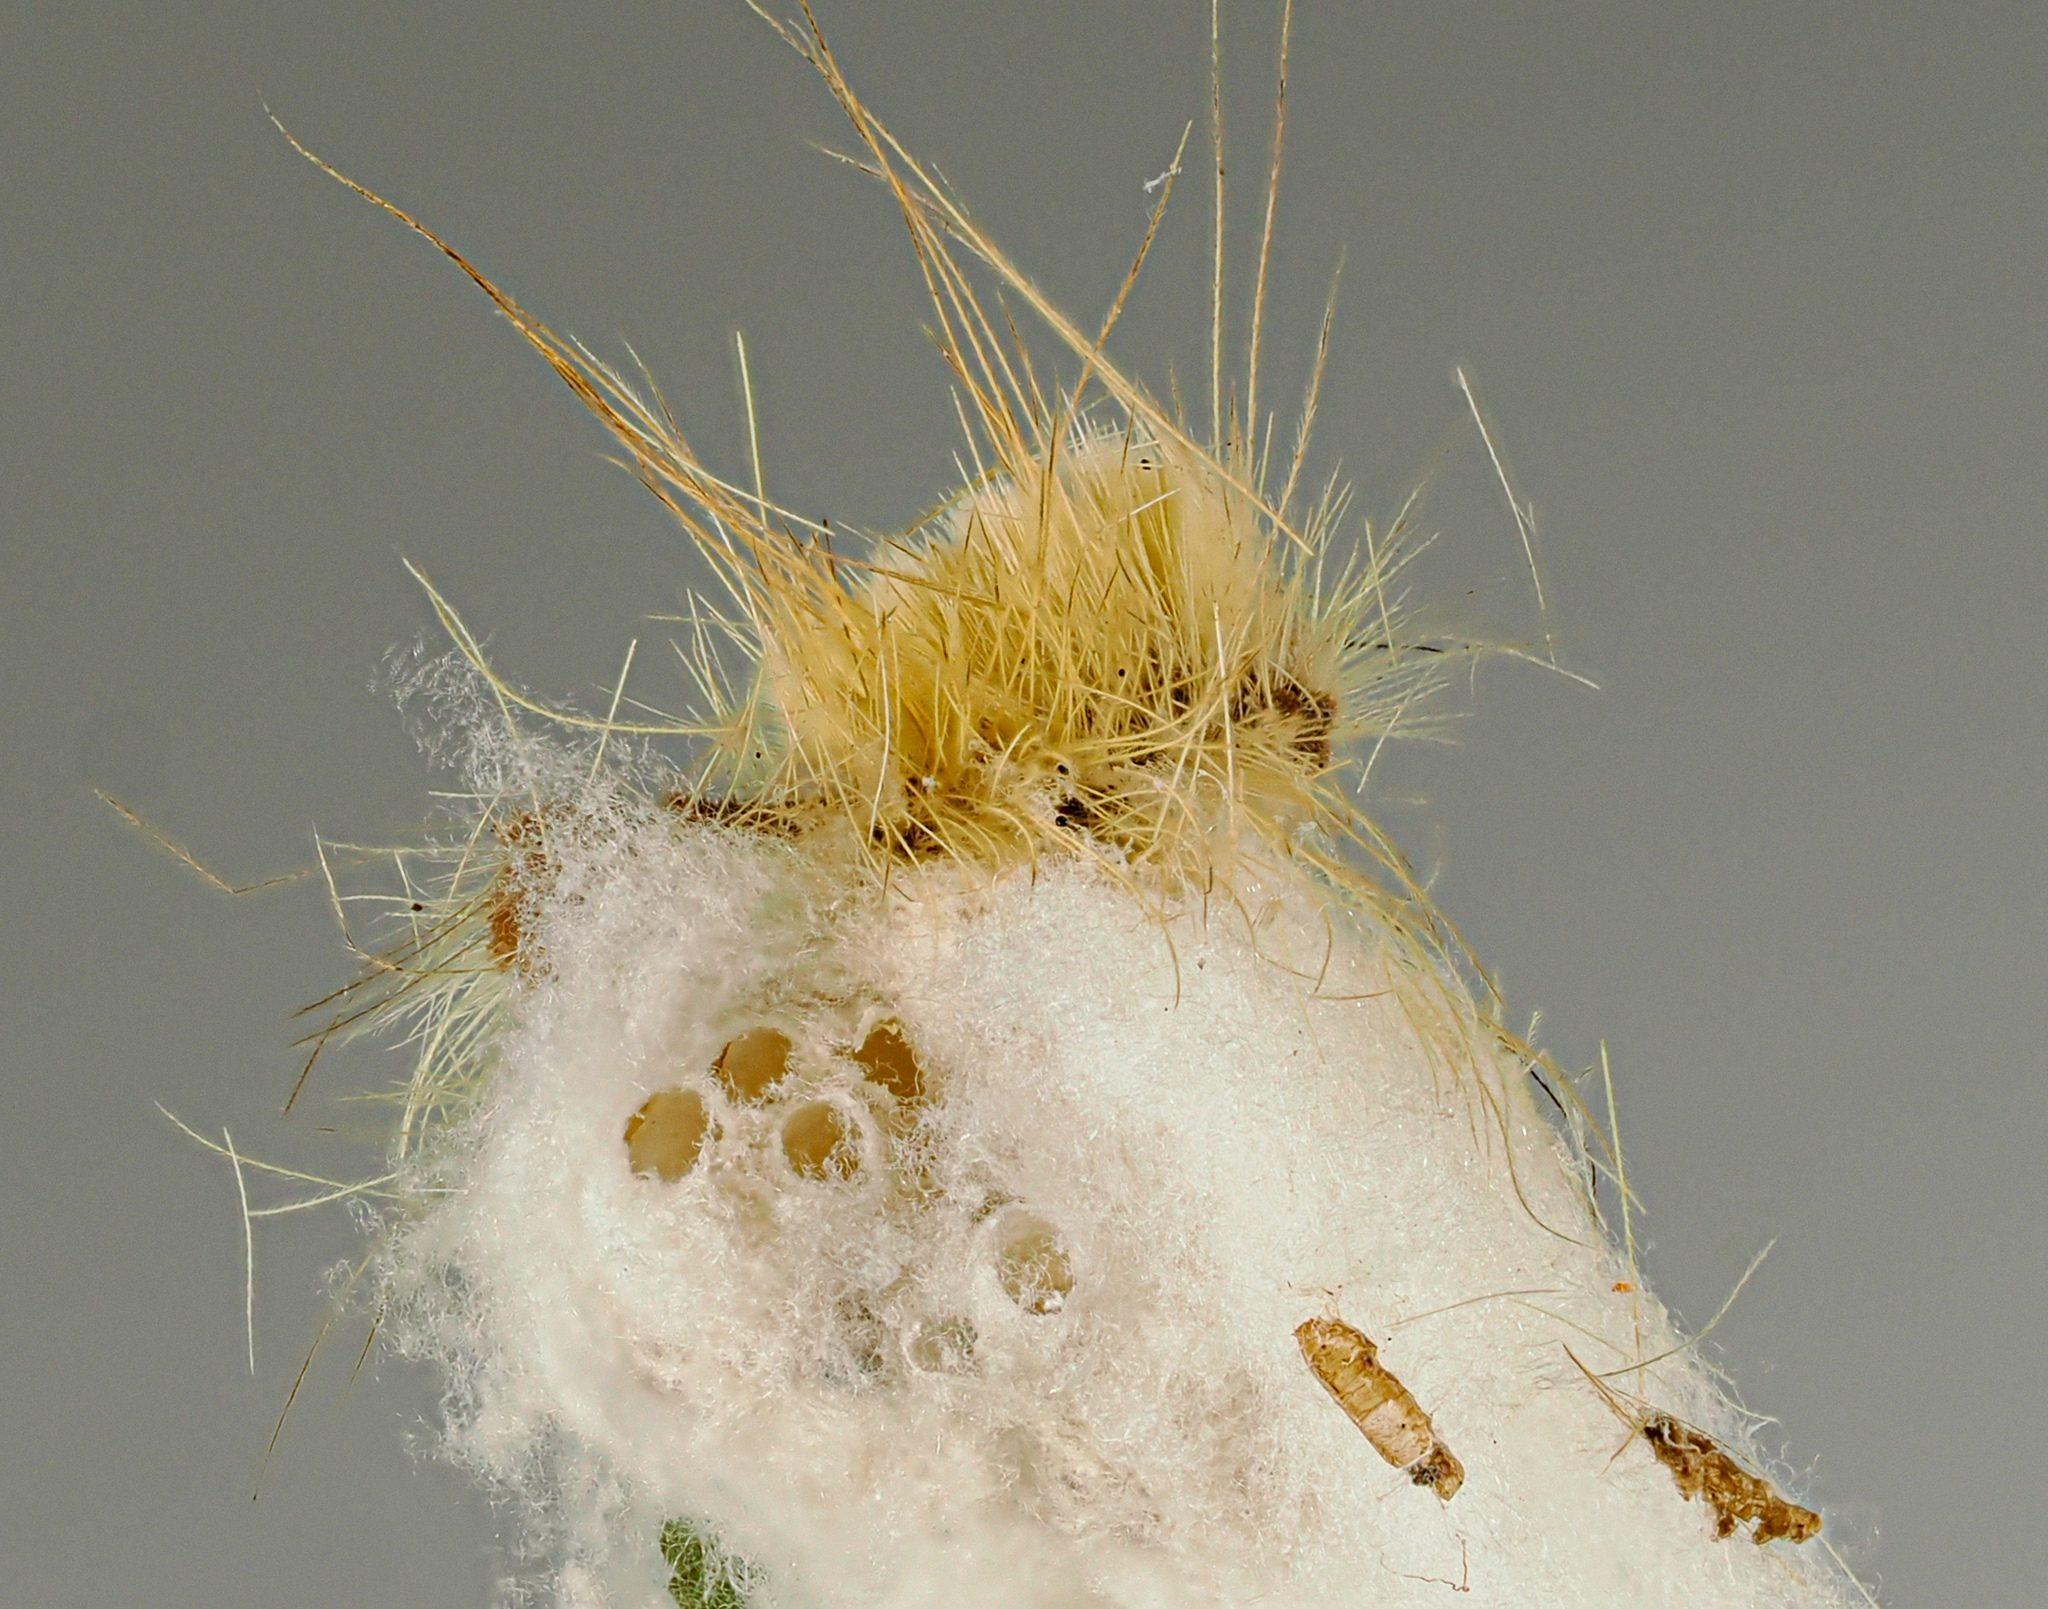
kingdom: Animalia
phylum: Arthropoda
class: Insecta
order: Lepidoptera
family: Erebidae
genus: Orgyia
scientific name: Orgyia definita
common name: Definite tussock moth
